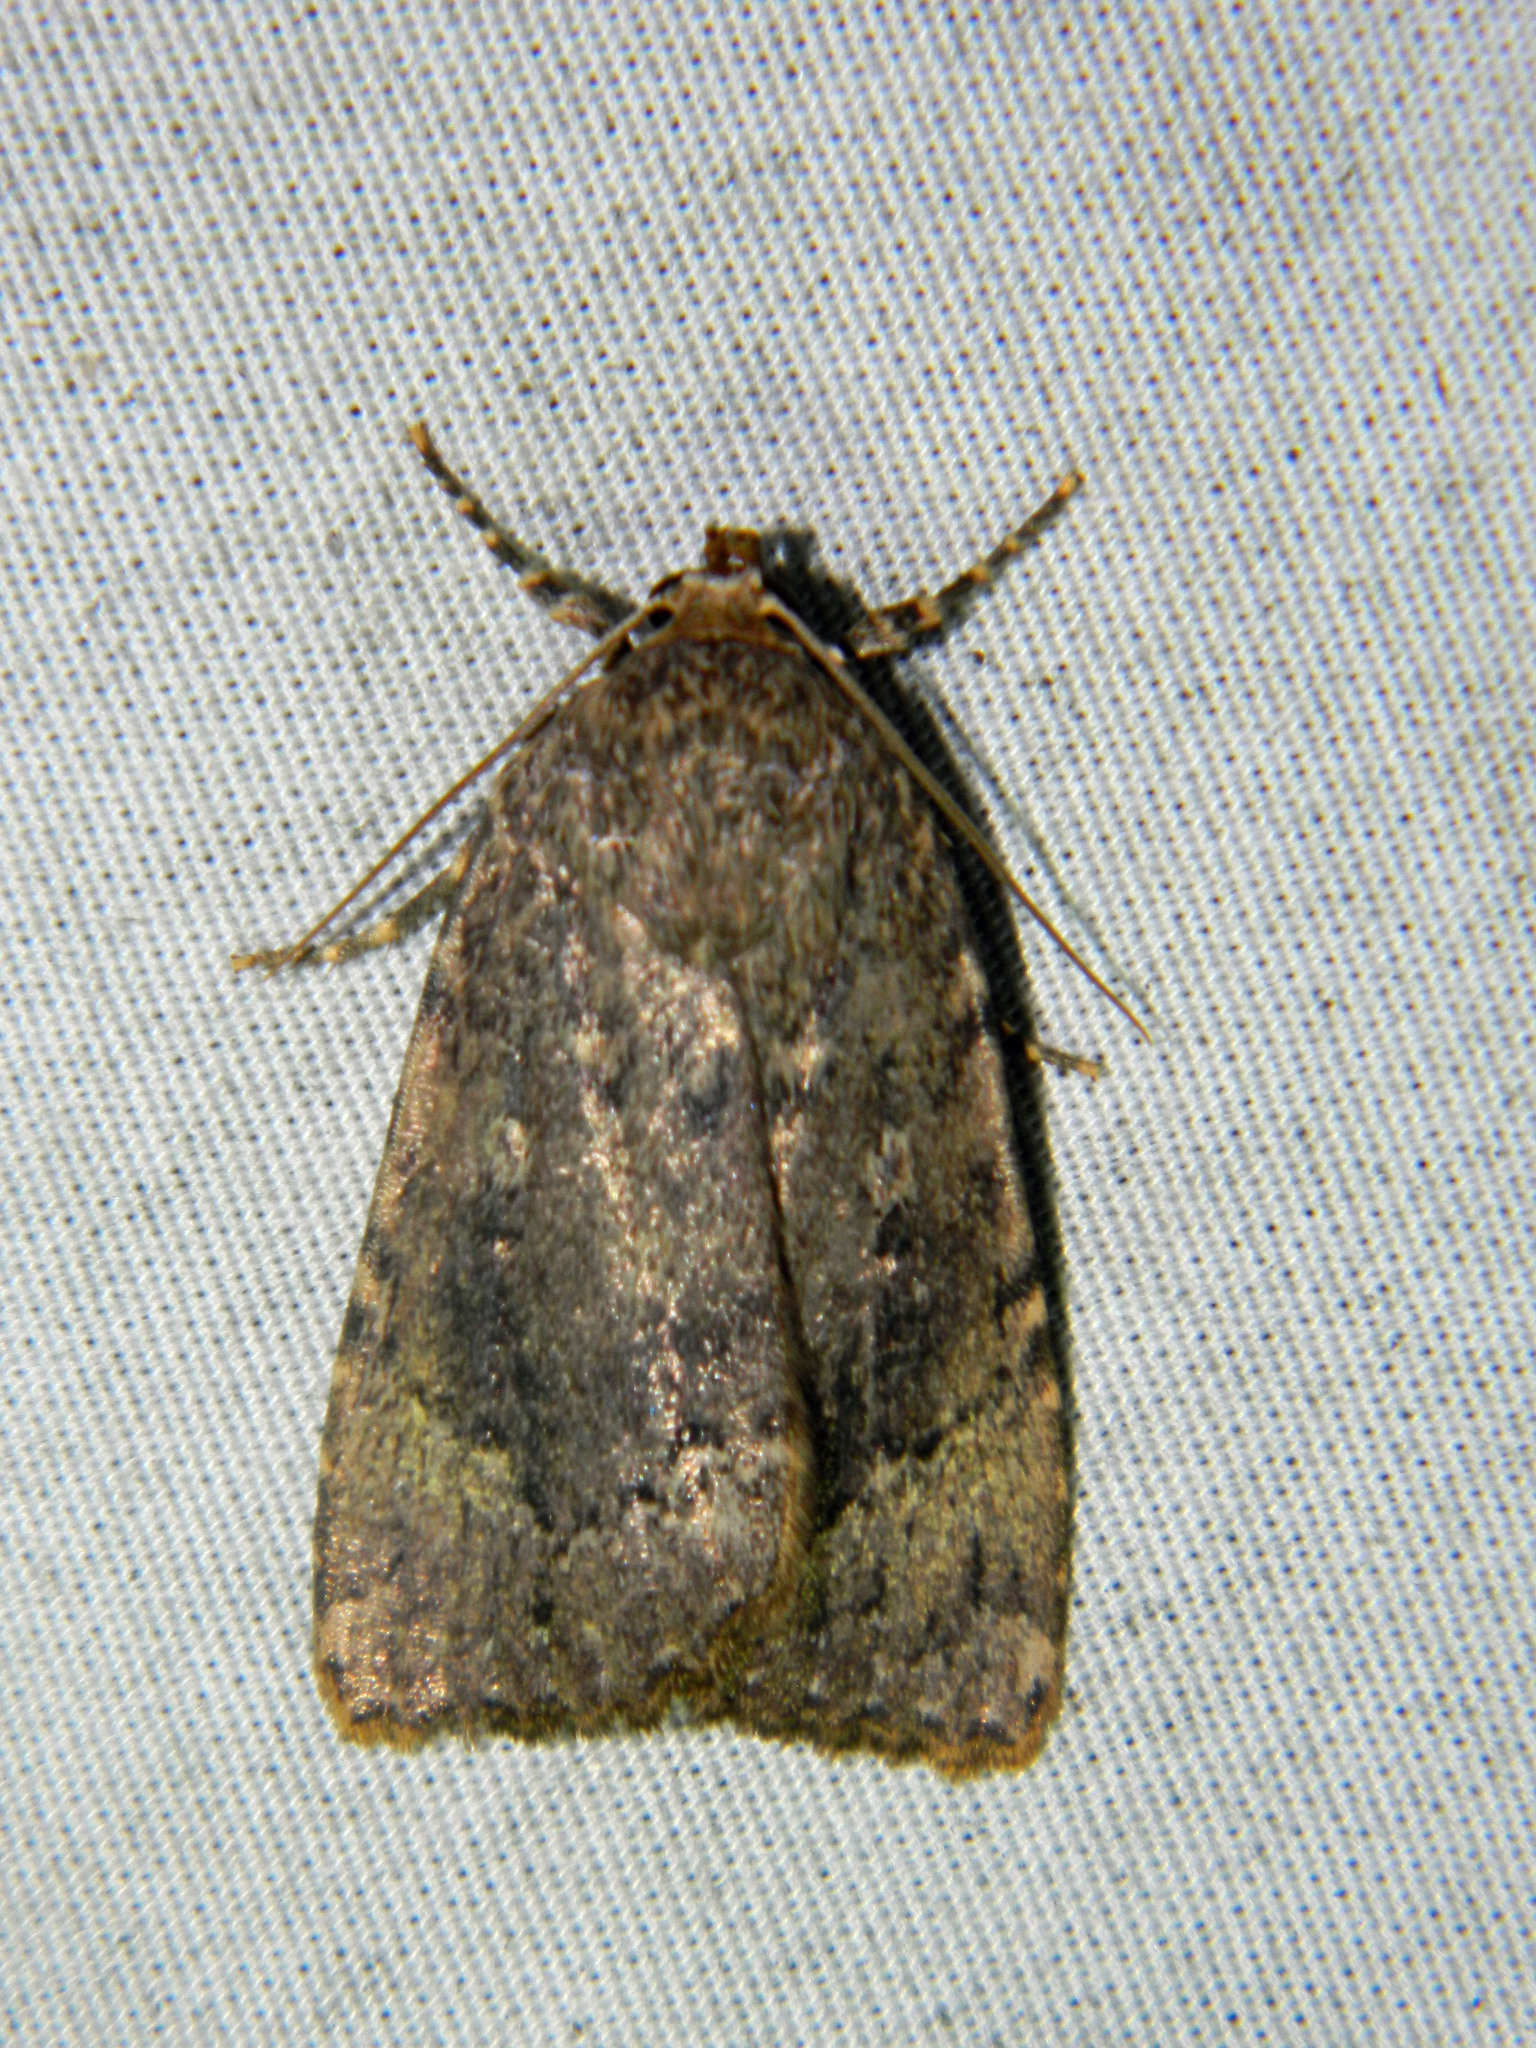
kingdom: Animalia
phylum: Arthropoda
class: Insecta
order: Lepidoptera
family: Noctuidae
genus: Amphipyra
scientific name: Amphipyra pyramidoides
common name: American copper underwing
